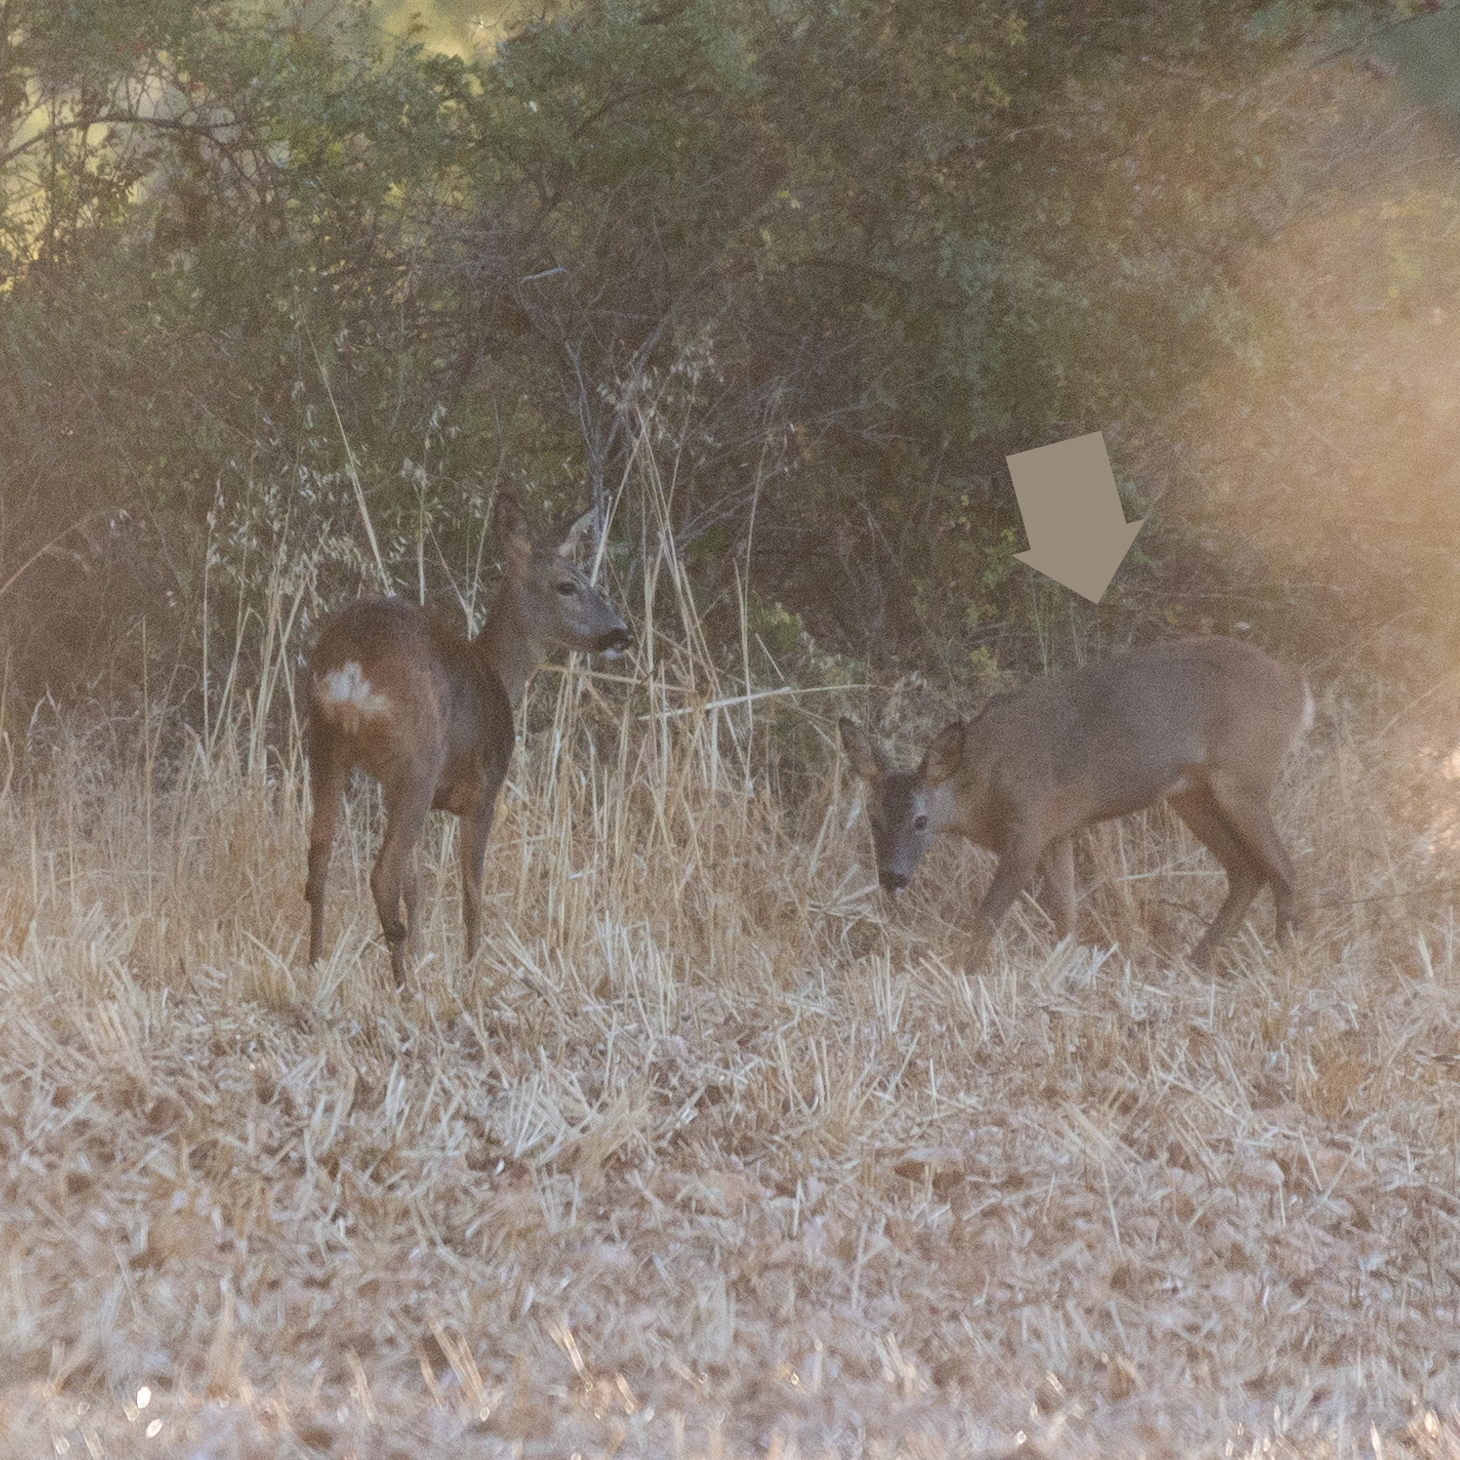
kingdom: Animalia
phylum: Chordata
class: Mammalia
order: Artiodactyla
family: Cervidae
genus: Capreolus
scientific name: Capreolus capreolus
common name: Western roe deer
